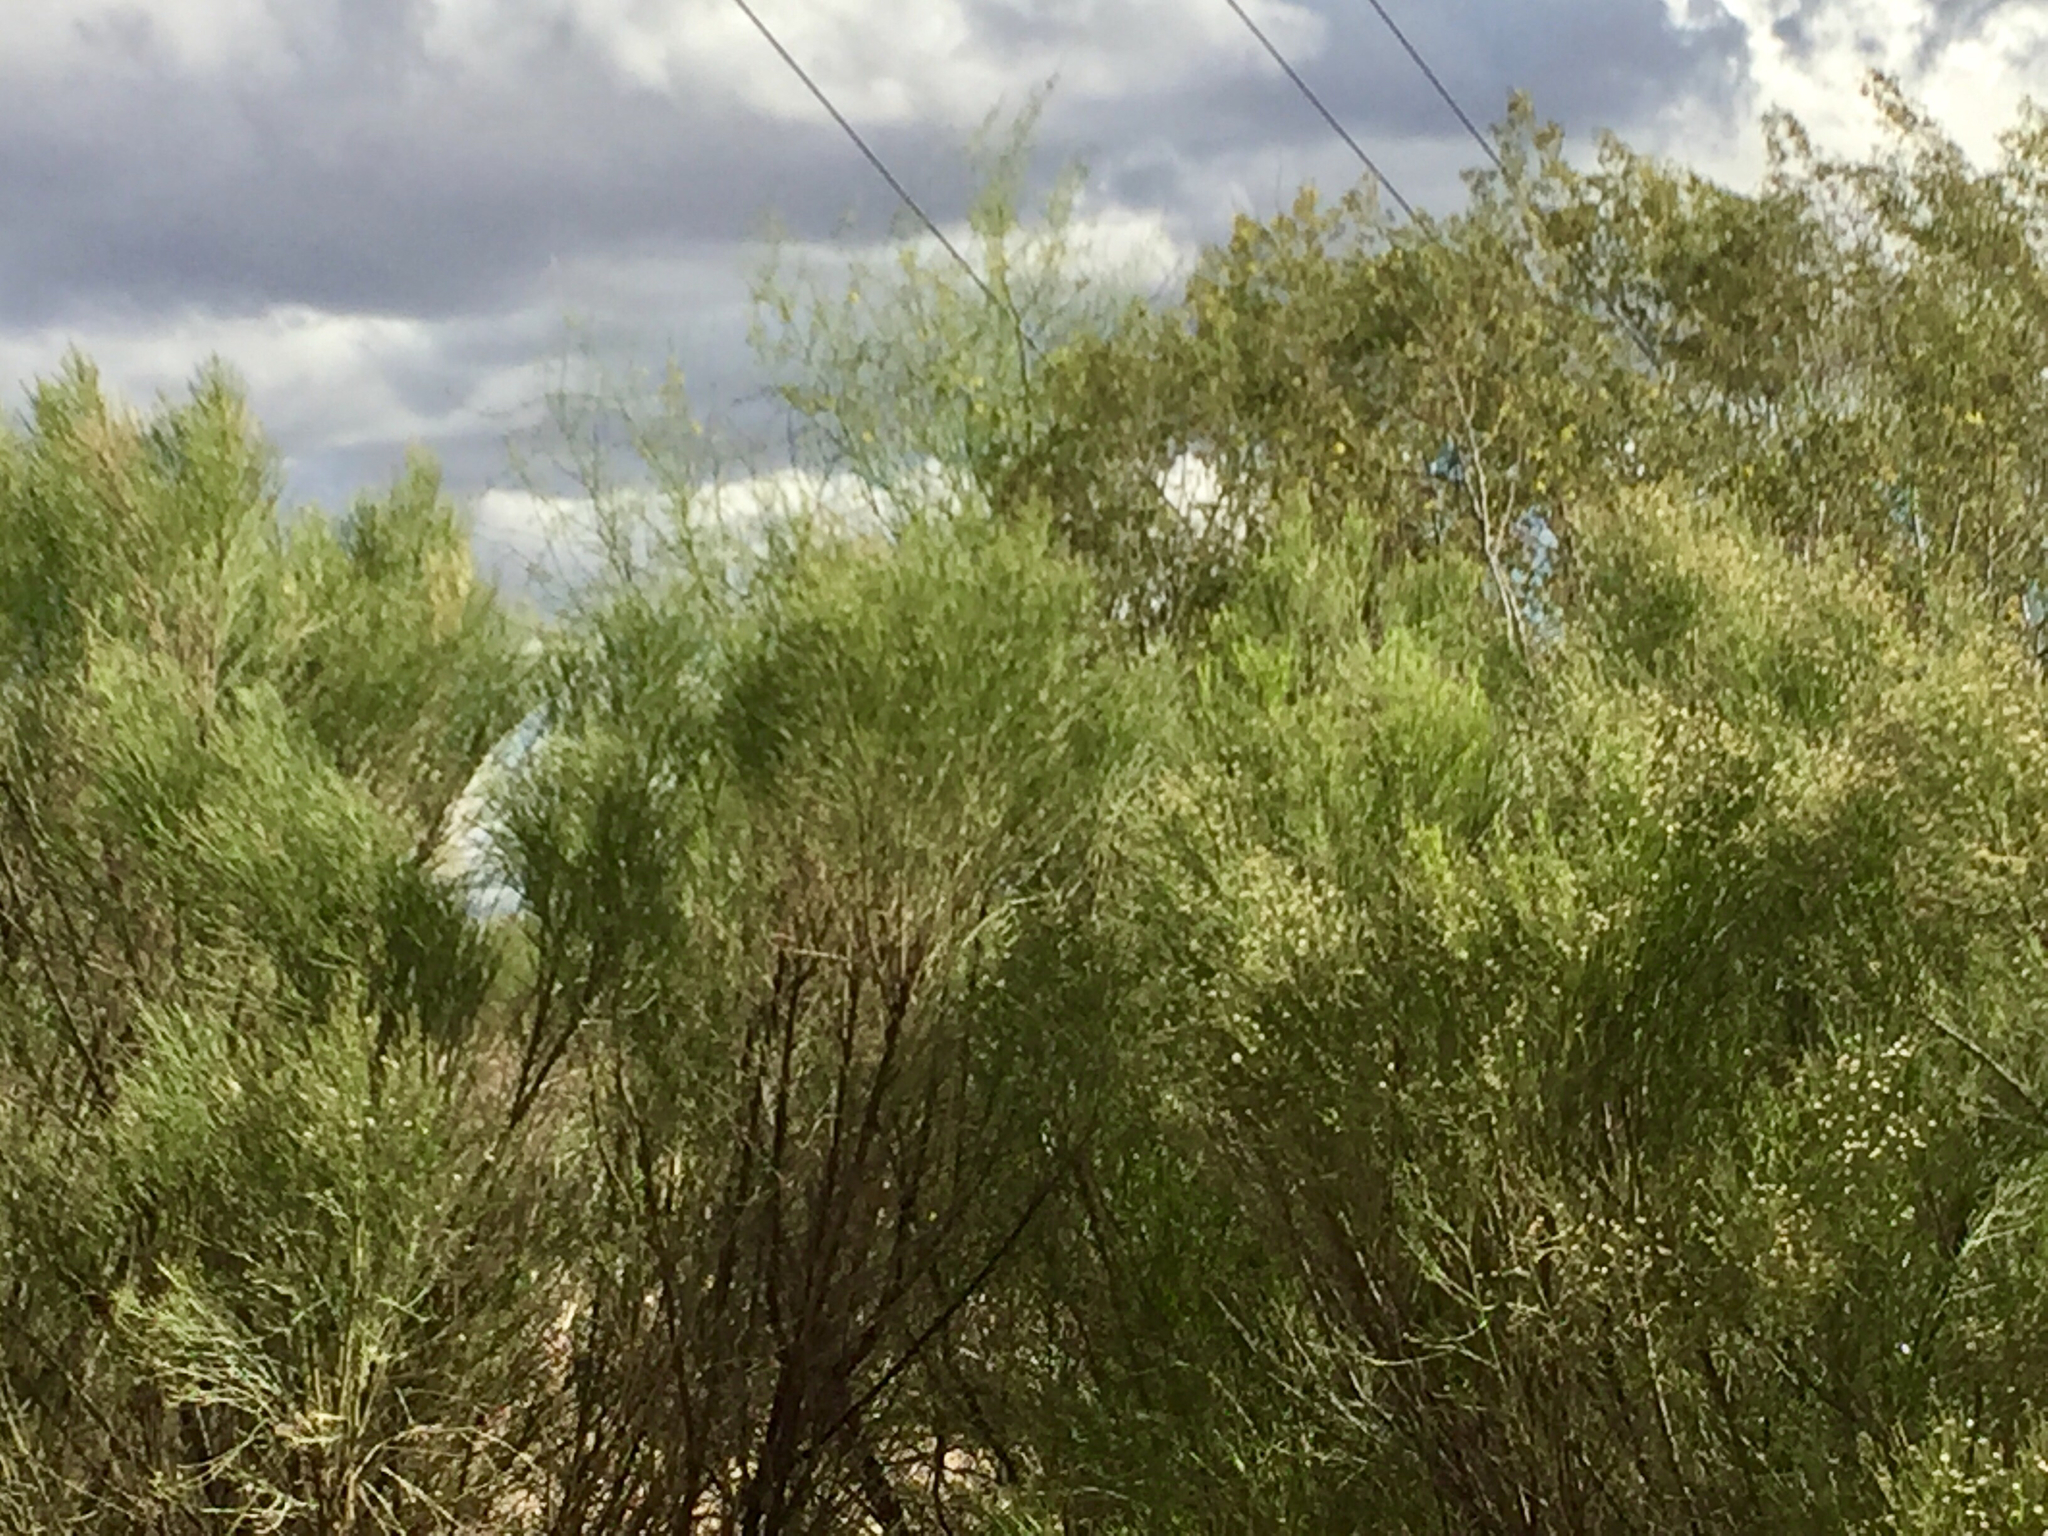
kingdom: Plantae
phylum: Tracheophyta
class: Magnoliopsida
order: Asterales
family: Asteraceae
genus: Baccharis
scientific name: Baccharis sarothroides
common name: Desert-broom
